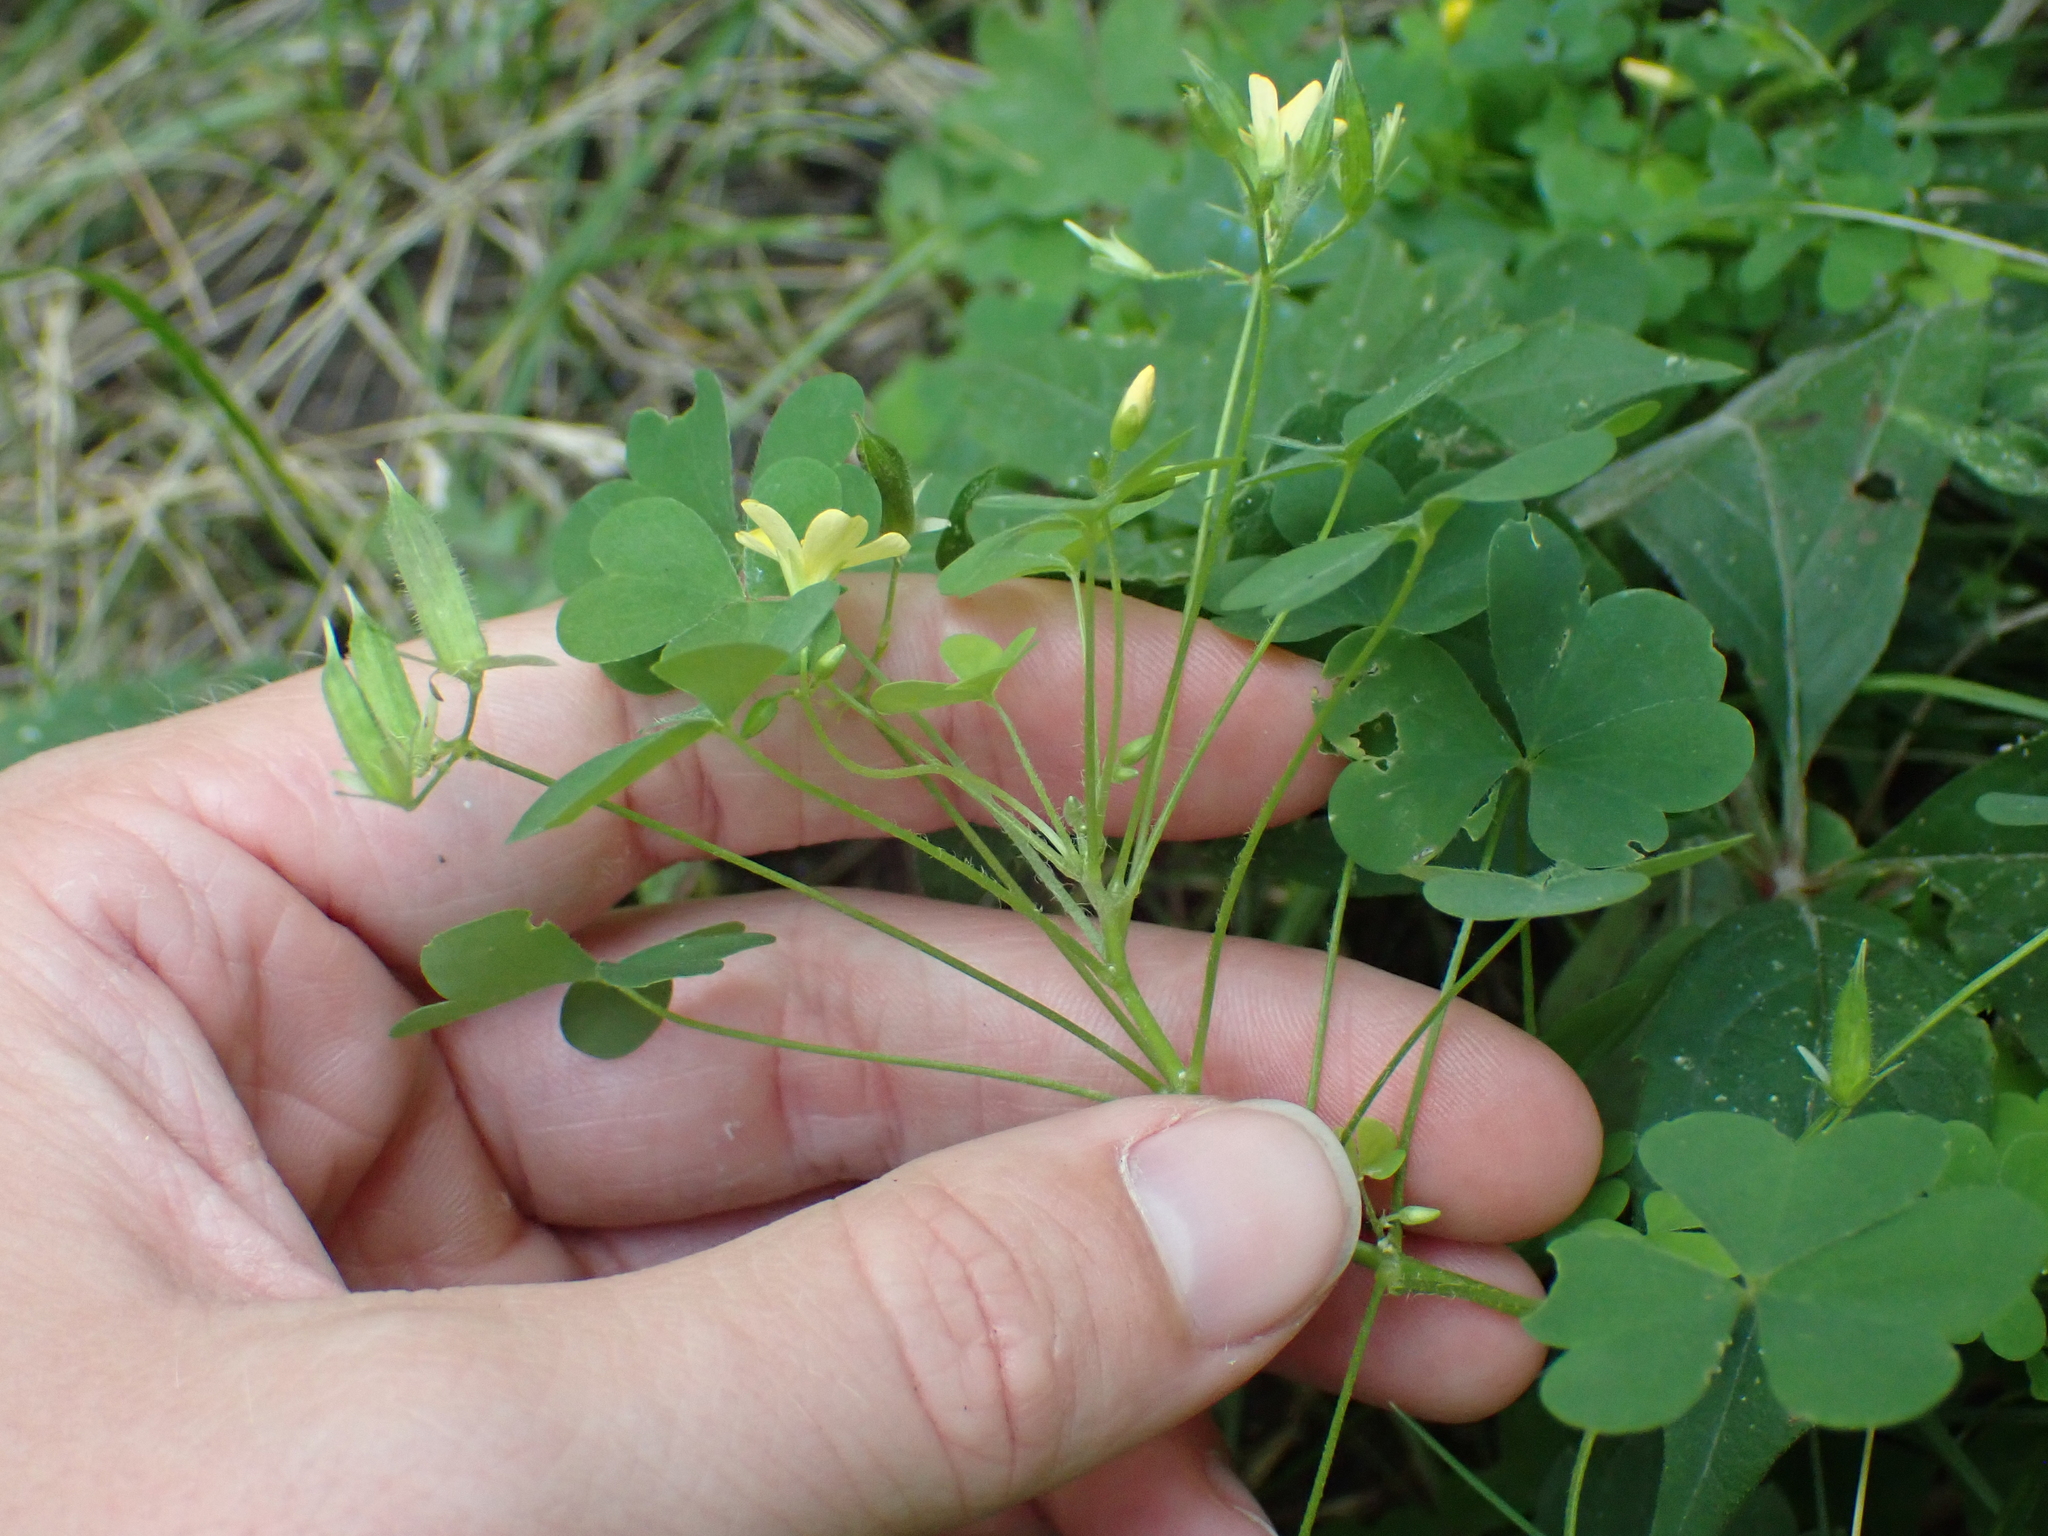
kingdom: Plantae
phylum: Tracheophyta
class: Magnoliopsida
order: Oxalidales
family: Oxalidaceae
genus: Oxalis
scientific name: Oxalis stricta
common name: Upright yellow-sorrel
